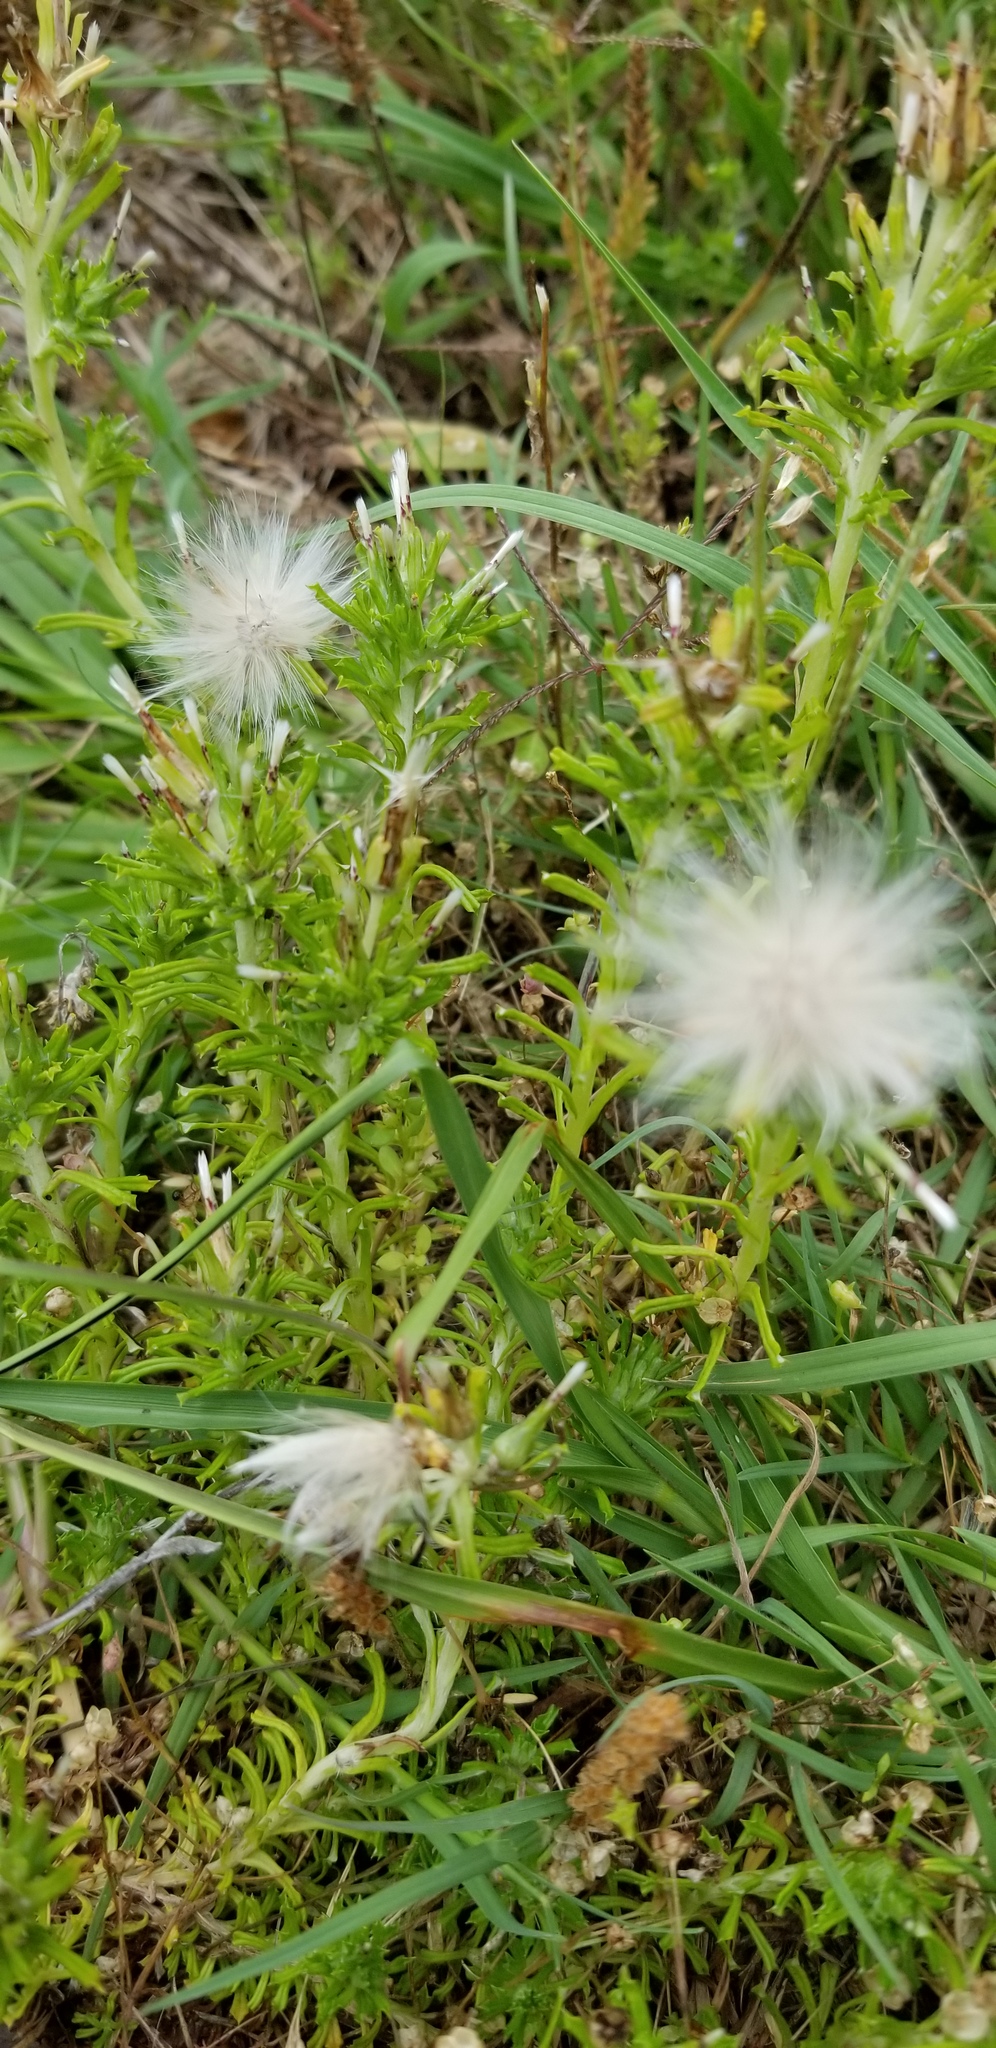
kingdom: Plantae
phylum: Tracheophyta
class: Magnoliopsida
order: Asterales
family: Asteraceae
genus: Facelis
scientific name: Facelis retusa
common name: Annual trampweed
